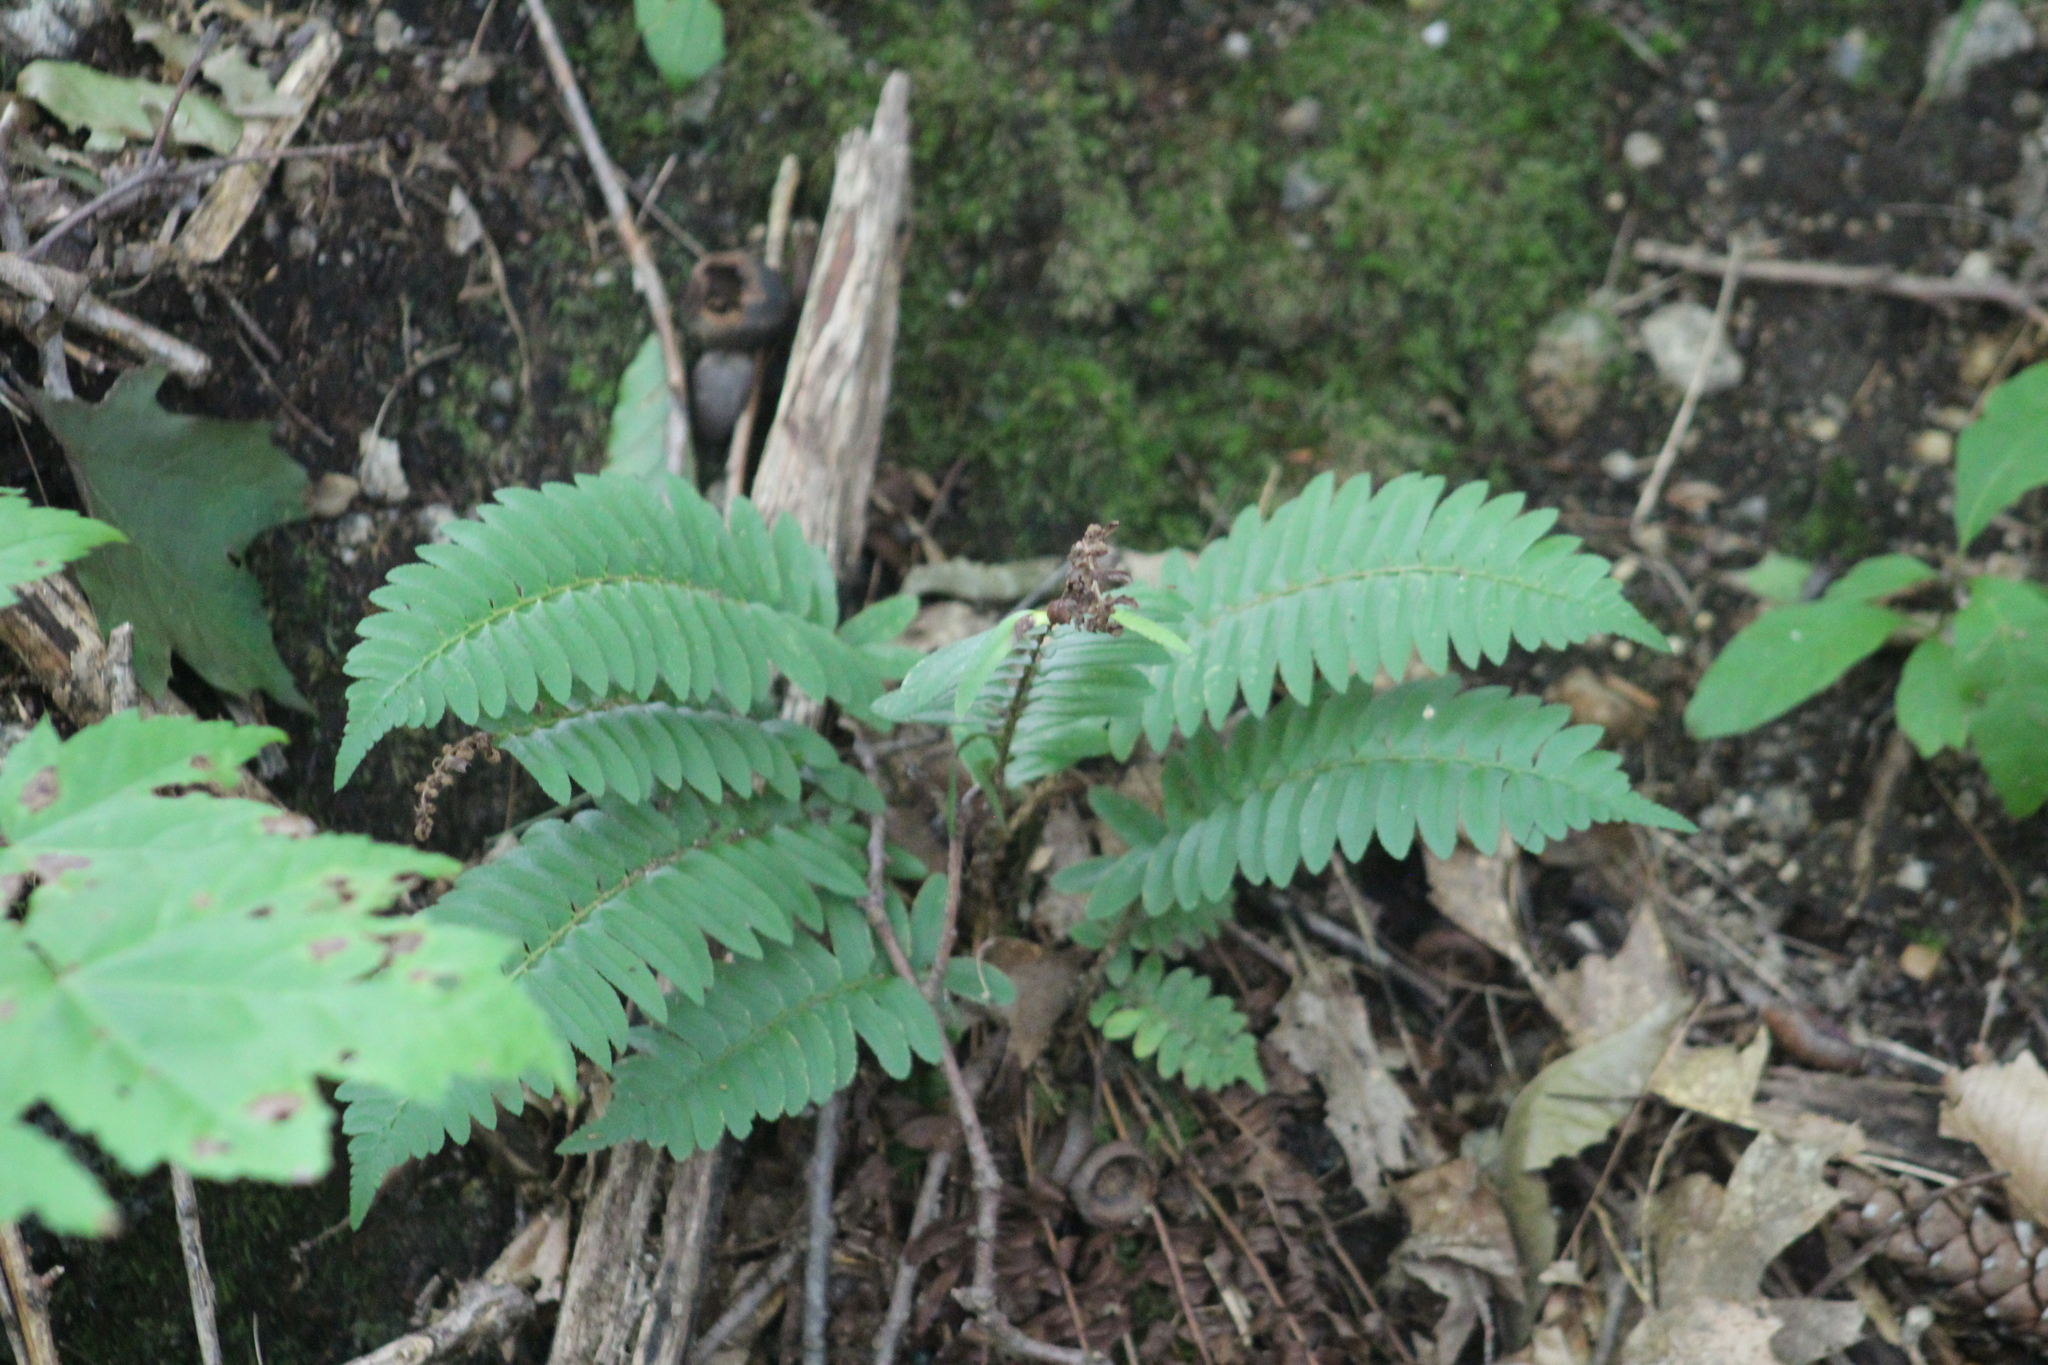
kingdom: Plantae
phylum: Tracheophyta
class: Polypodiopsida
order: Polypodiales
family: Dryopteridaceae
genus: Polystichum
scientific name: Polystichum acrostichoides
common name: Christmas fern
